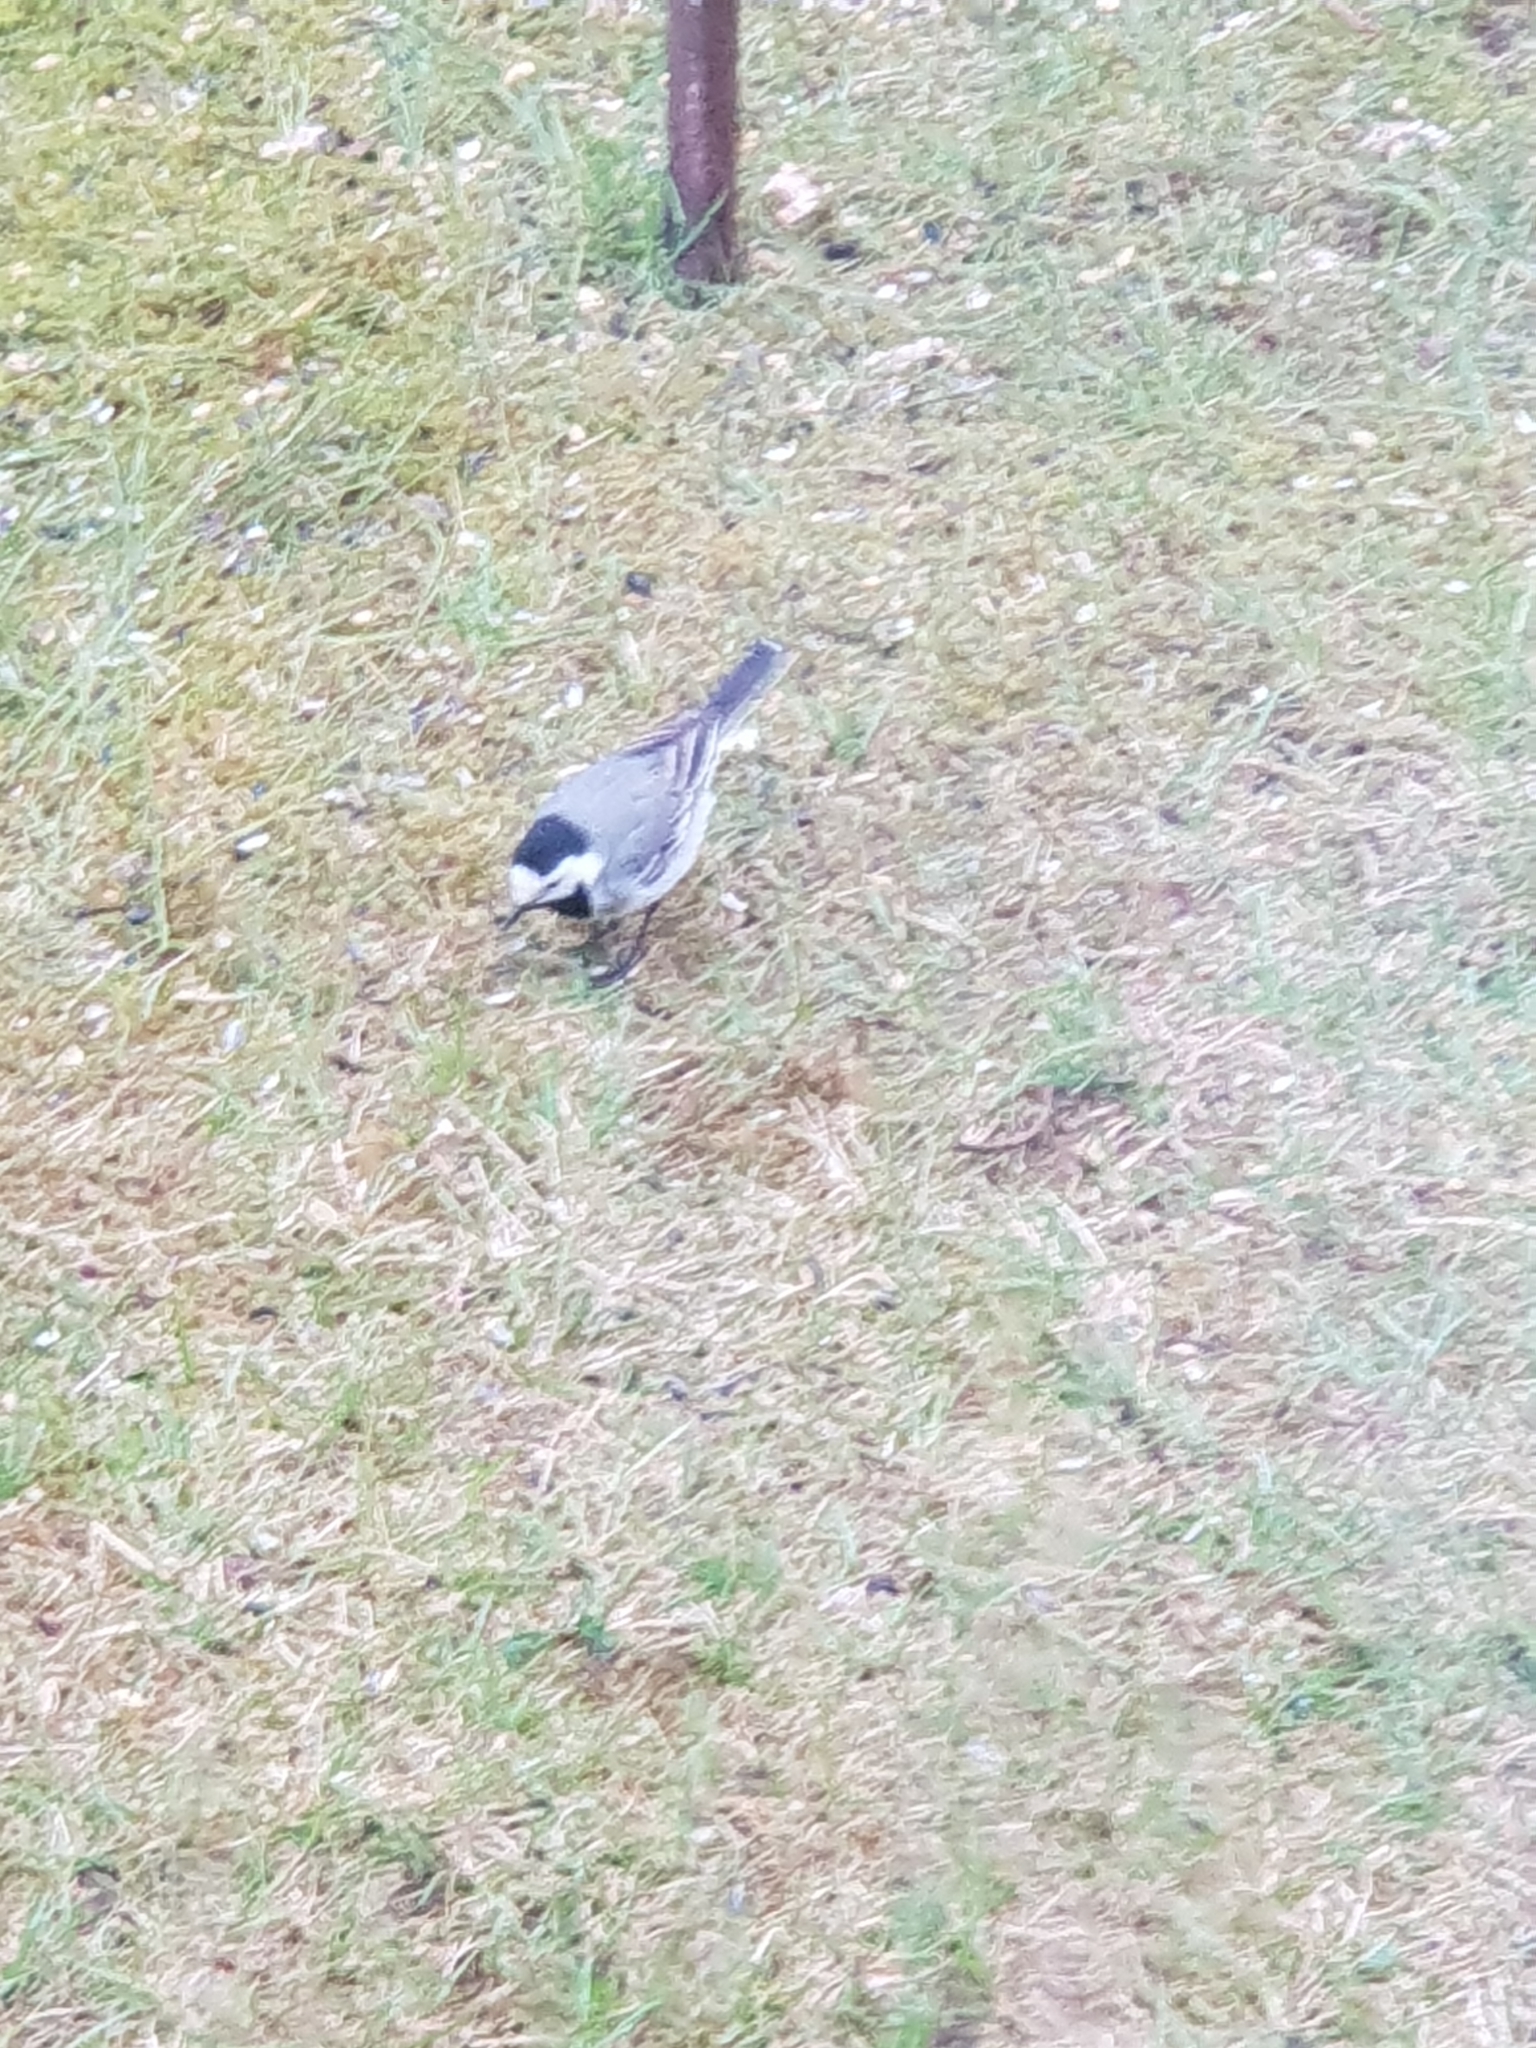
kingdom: Animalia
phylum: Chordata
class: Aves
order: Passeriformes
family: Motacillidae
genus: Motacilla
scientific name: Motacilla alba
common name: White wagtail
